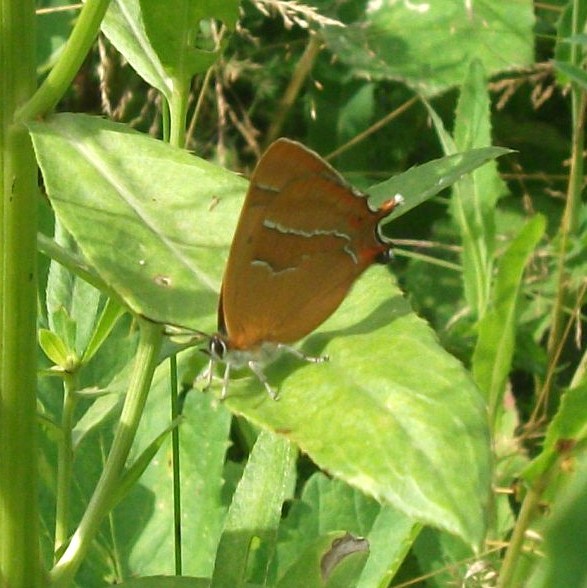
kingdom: Animalia
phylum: Arthropoda
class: Insecta
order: Lepidoptera
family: Lycaenidae
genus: Thecla
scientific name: Thecla betulae
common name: Brown hairstreak
